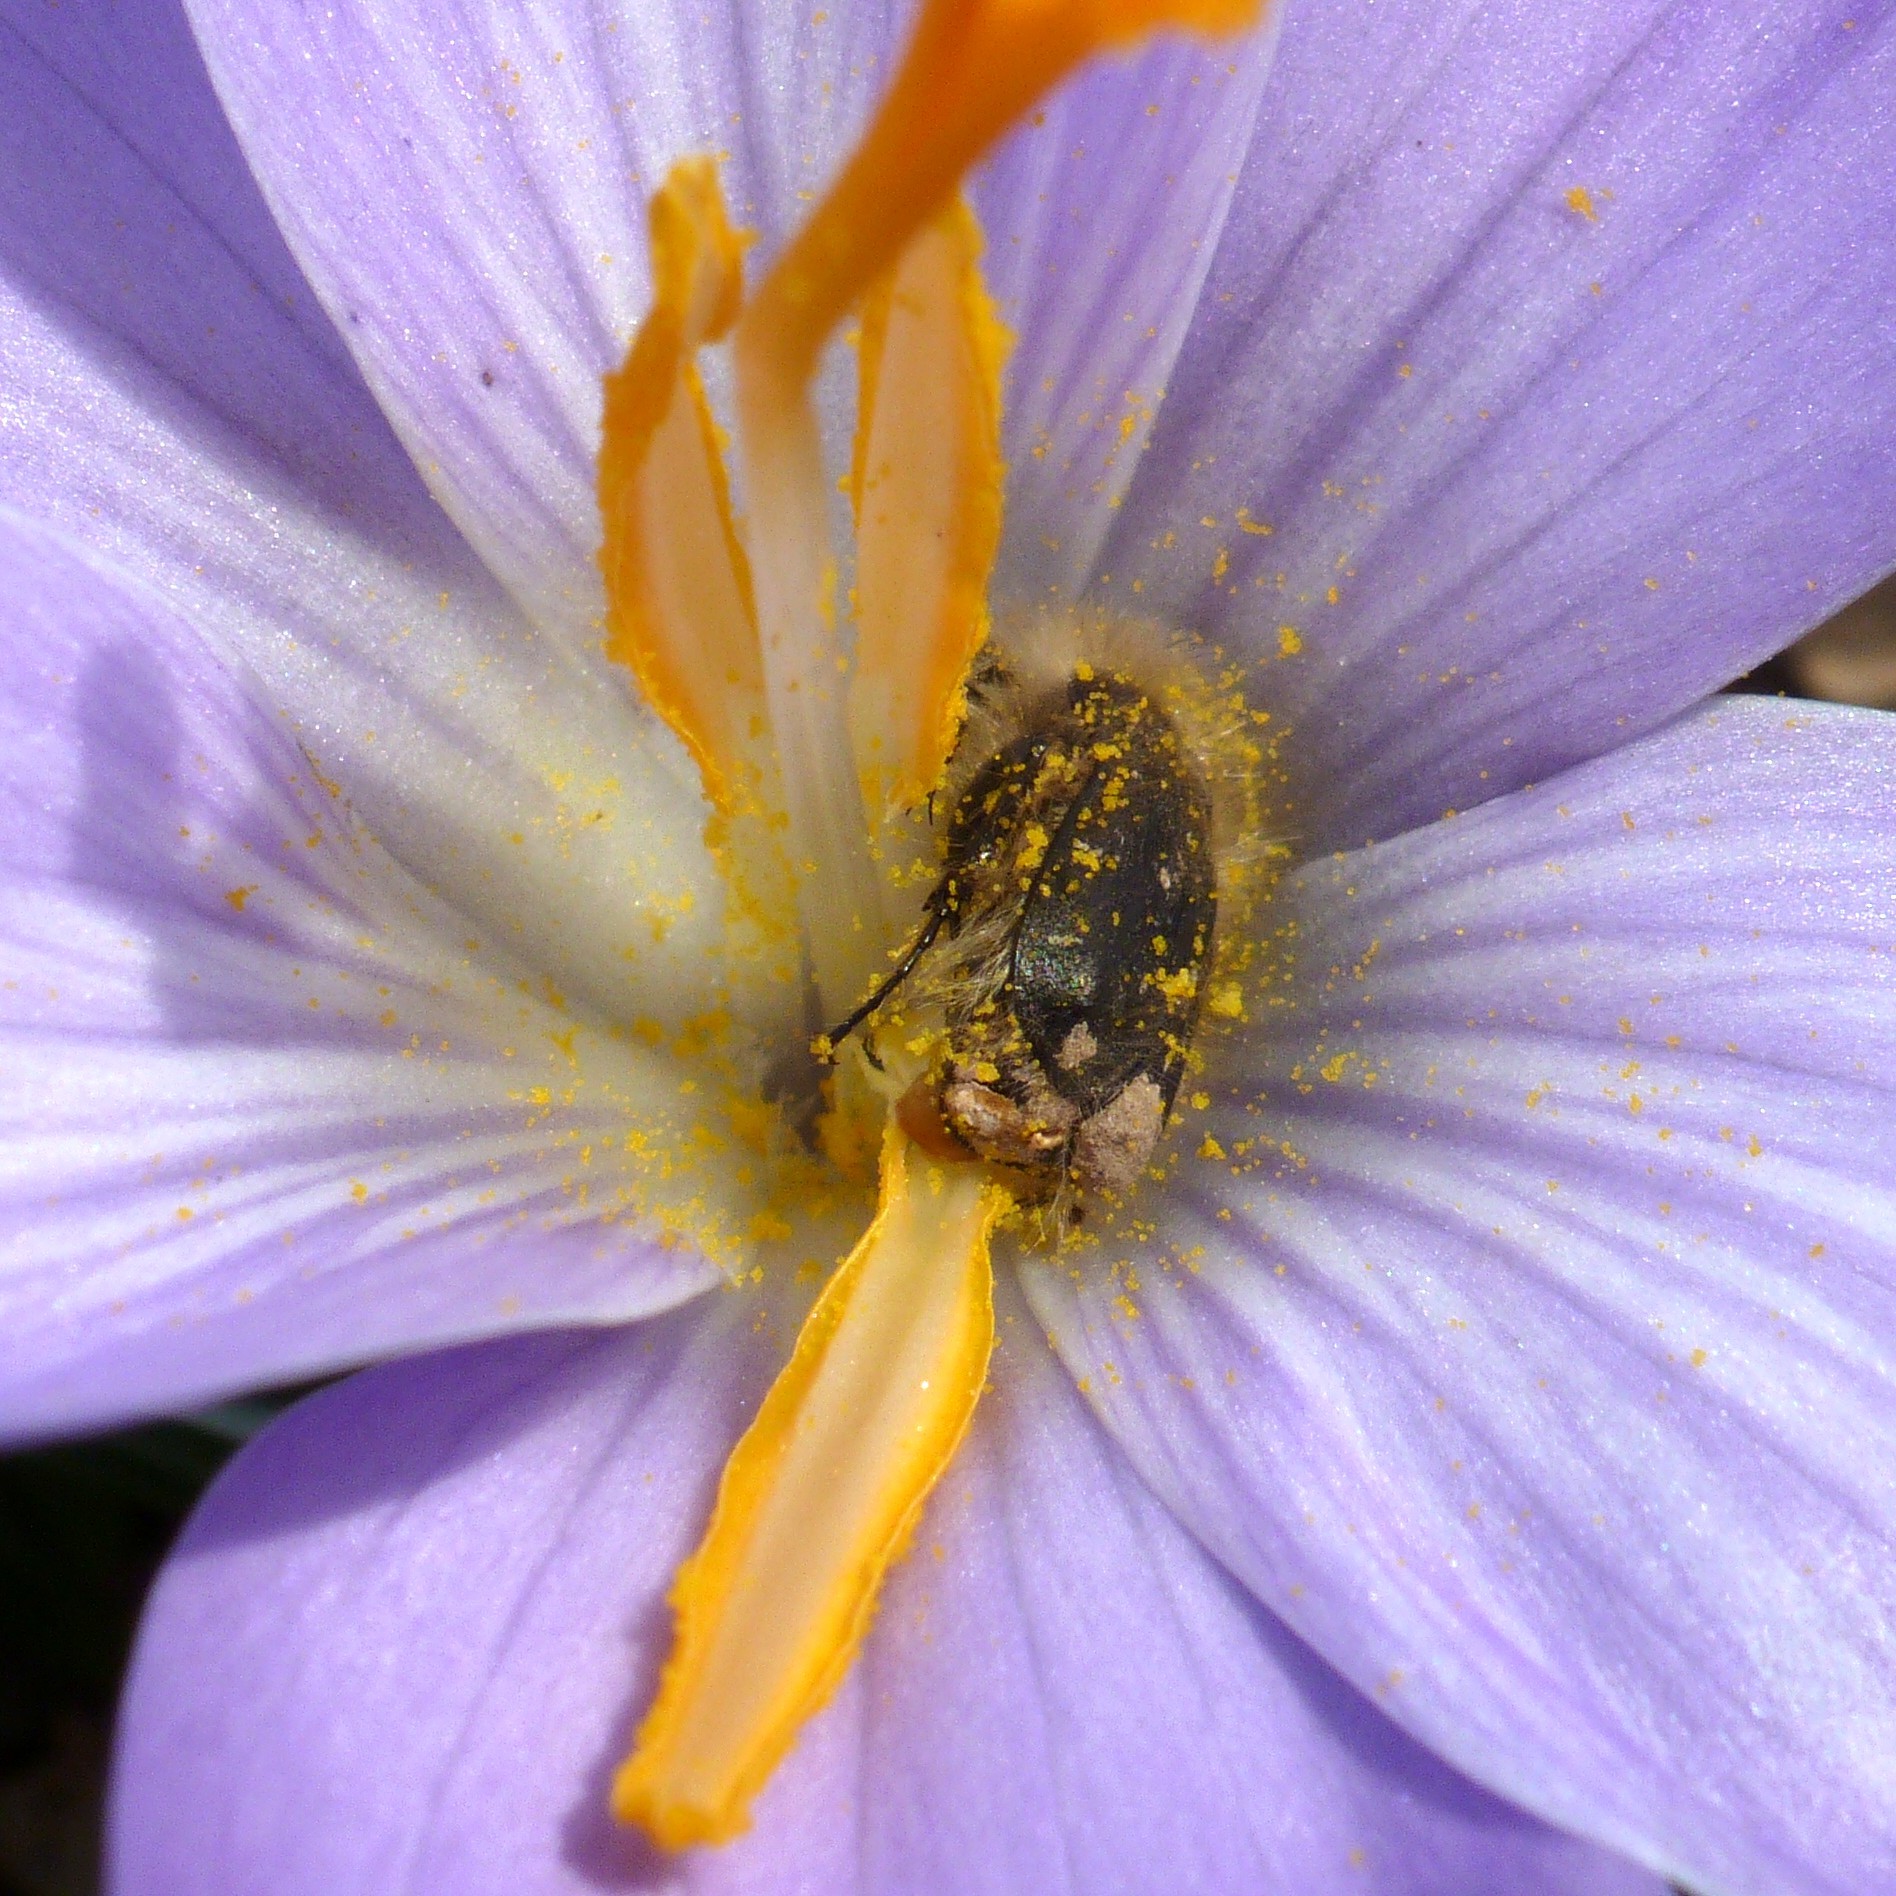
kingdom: Animalia
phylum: Arthropoda
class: Insecta
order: Coleoptera
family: Scarabaeidae
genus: Tropinota
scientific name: Tropinota hirta
